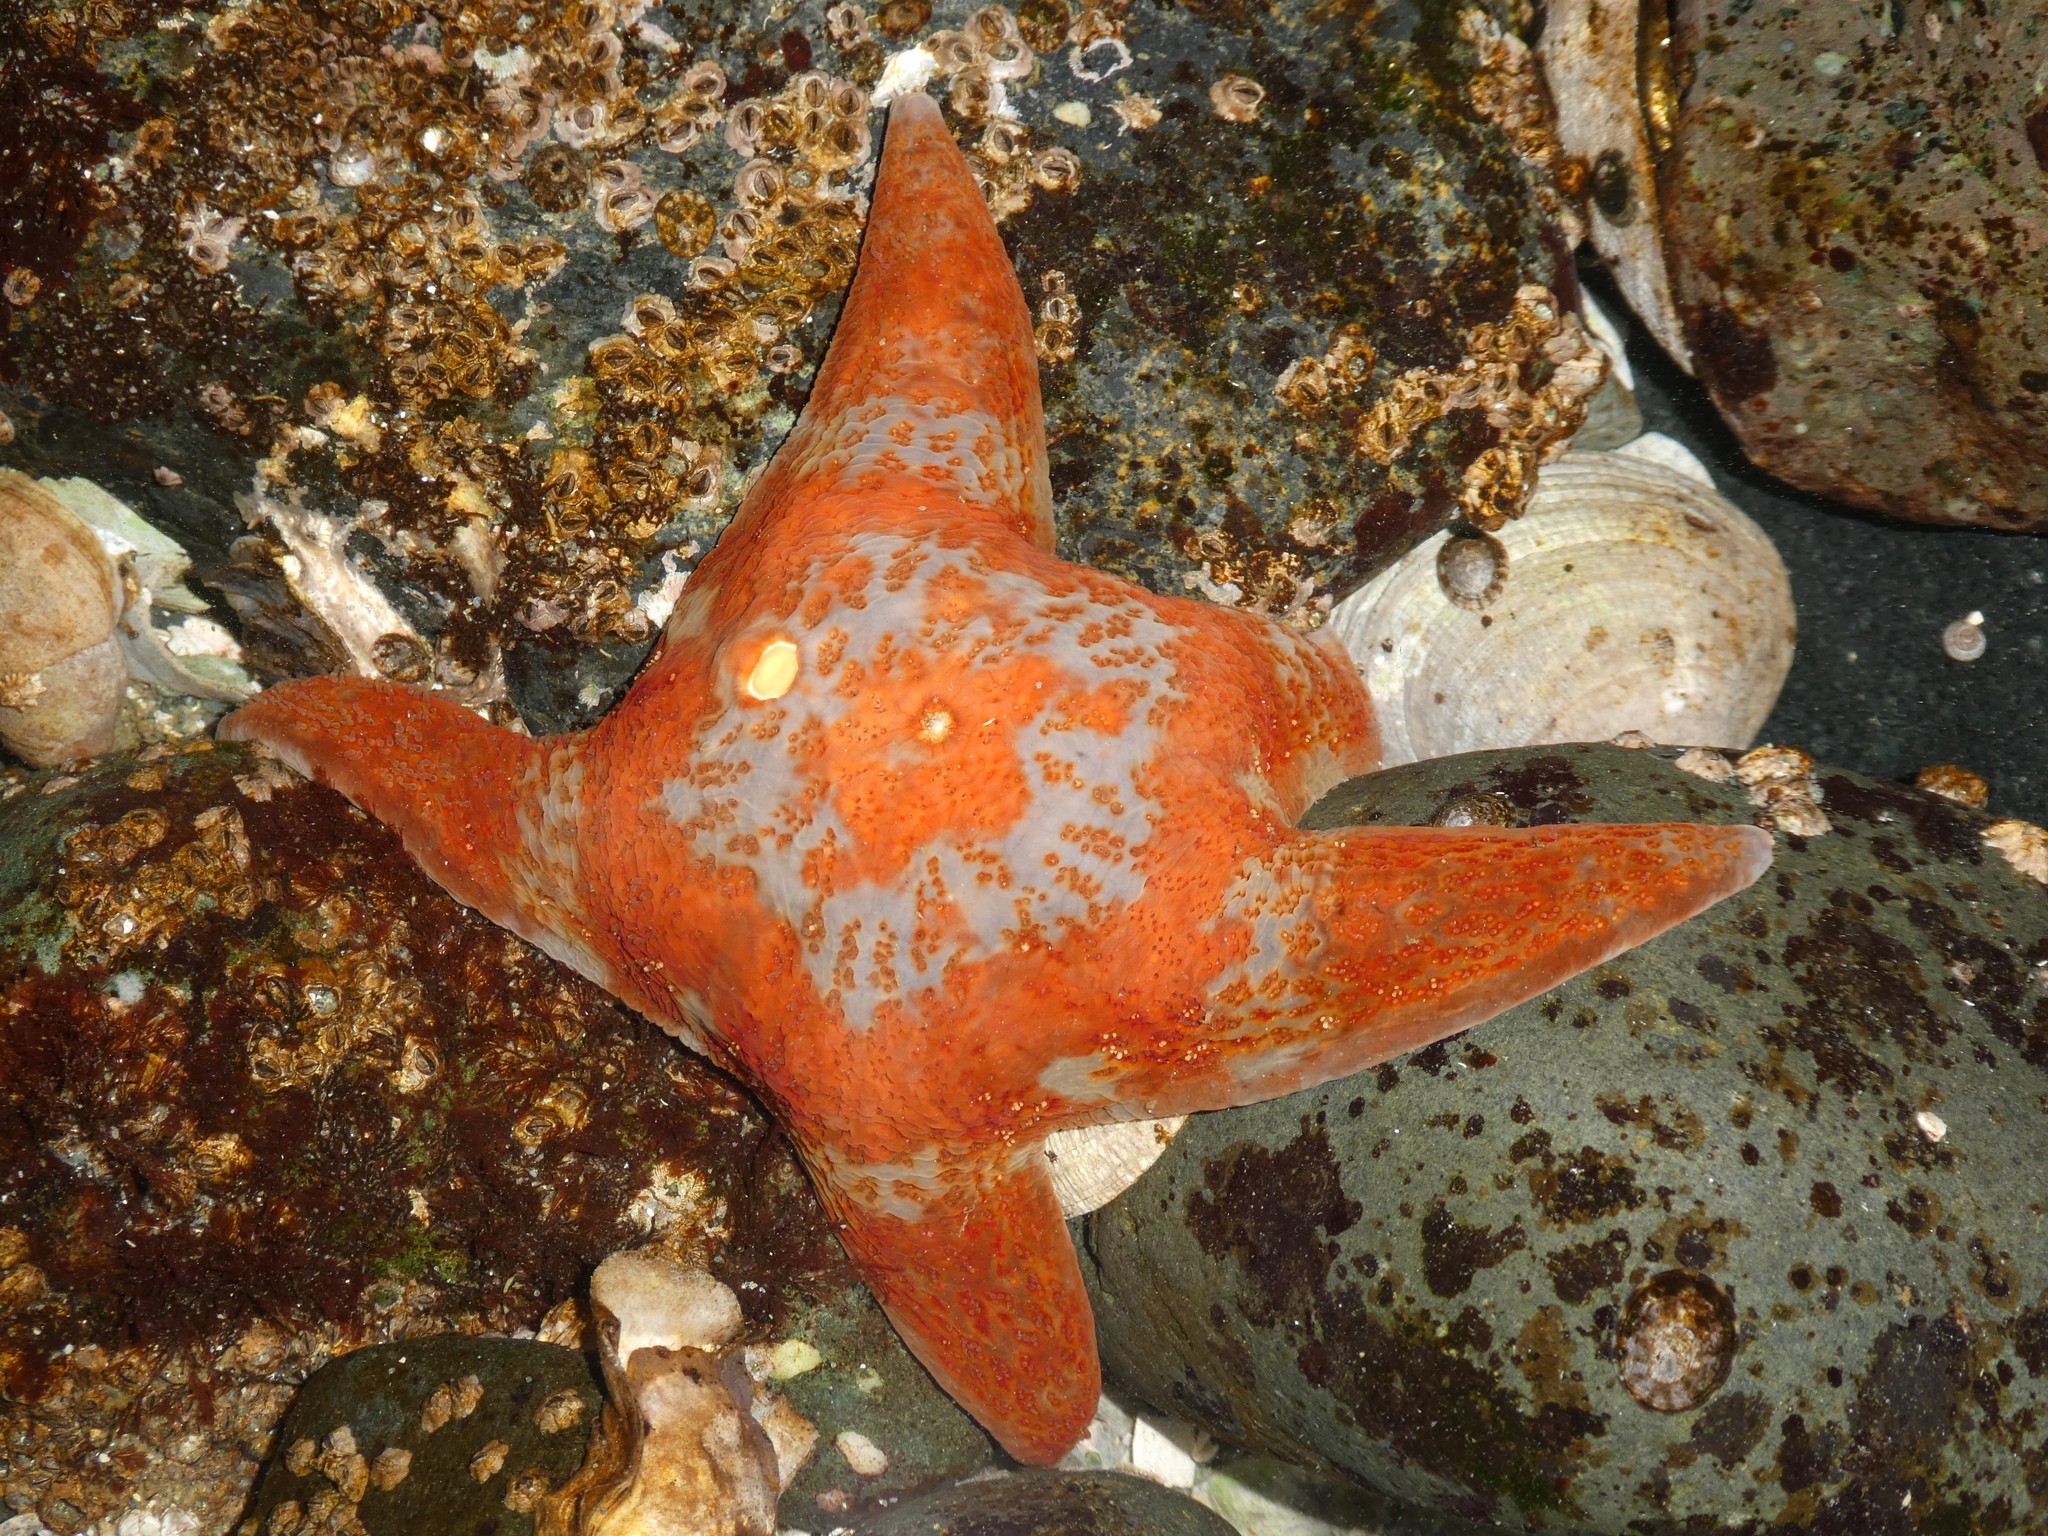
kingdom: Animalia
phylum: Echinodermata
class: Asteroidea
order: Valvatida
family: Asteropseidae
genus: Dermasterias
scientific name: Dermasterias imbricata
